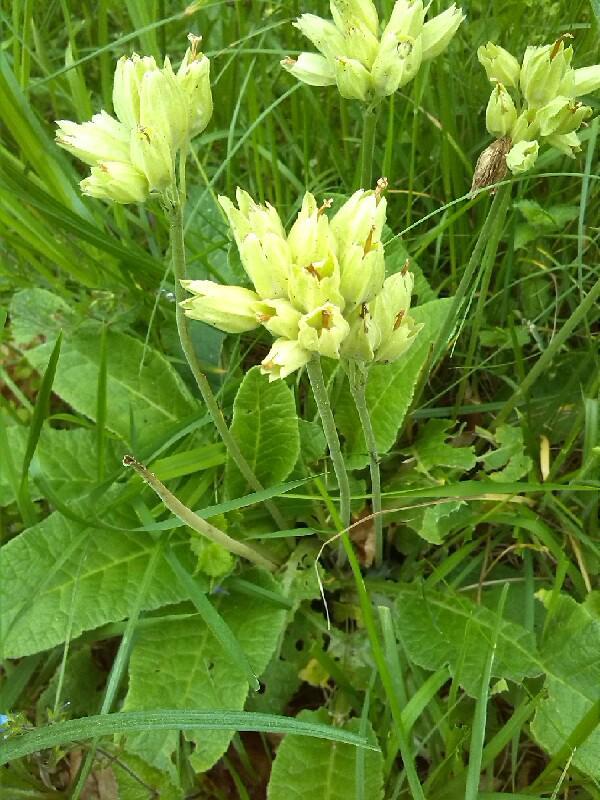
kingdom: Plantae
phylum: Tracheophyta
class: Magnoliopsida
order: Ericales
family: Primulaceae
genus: Primula
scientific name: Primula veris
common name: Cowslip
